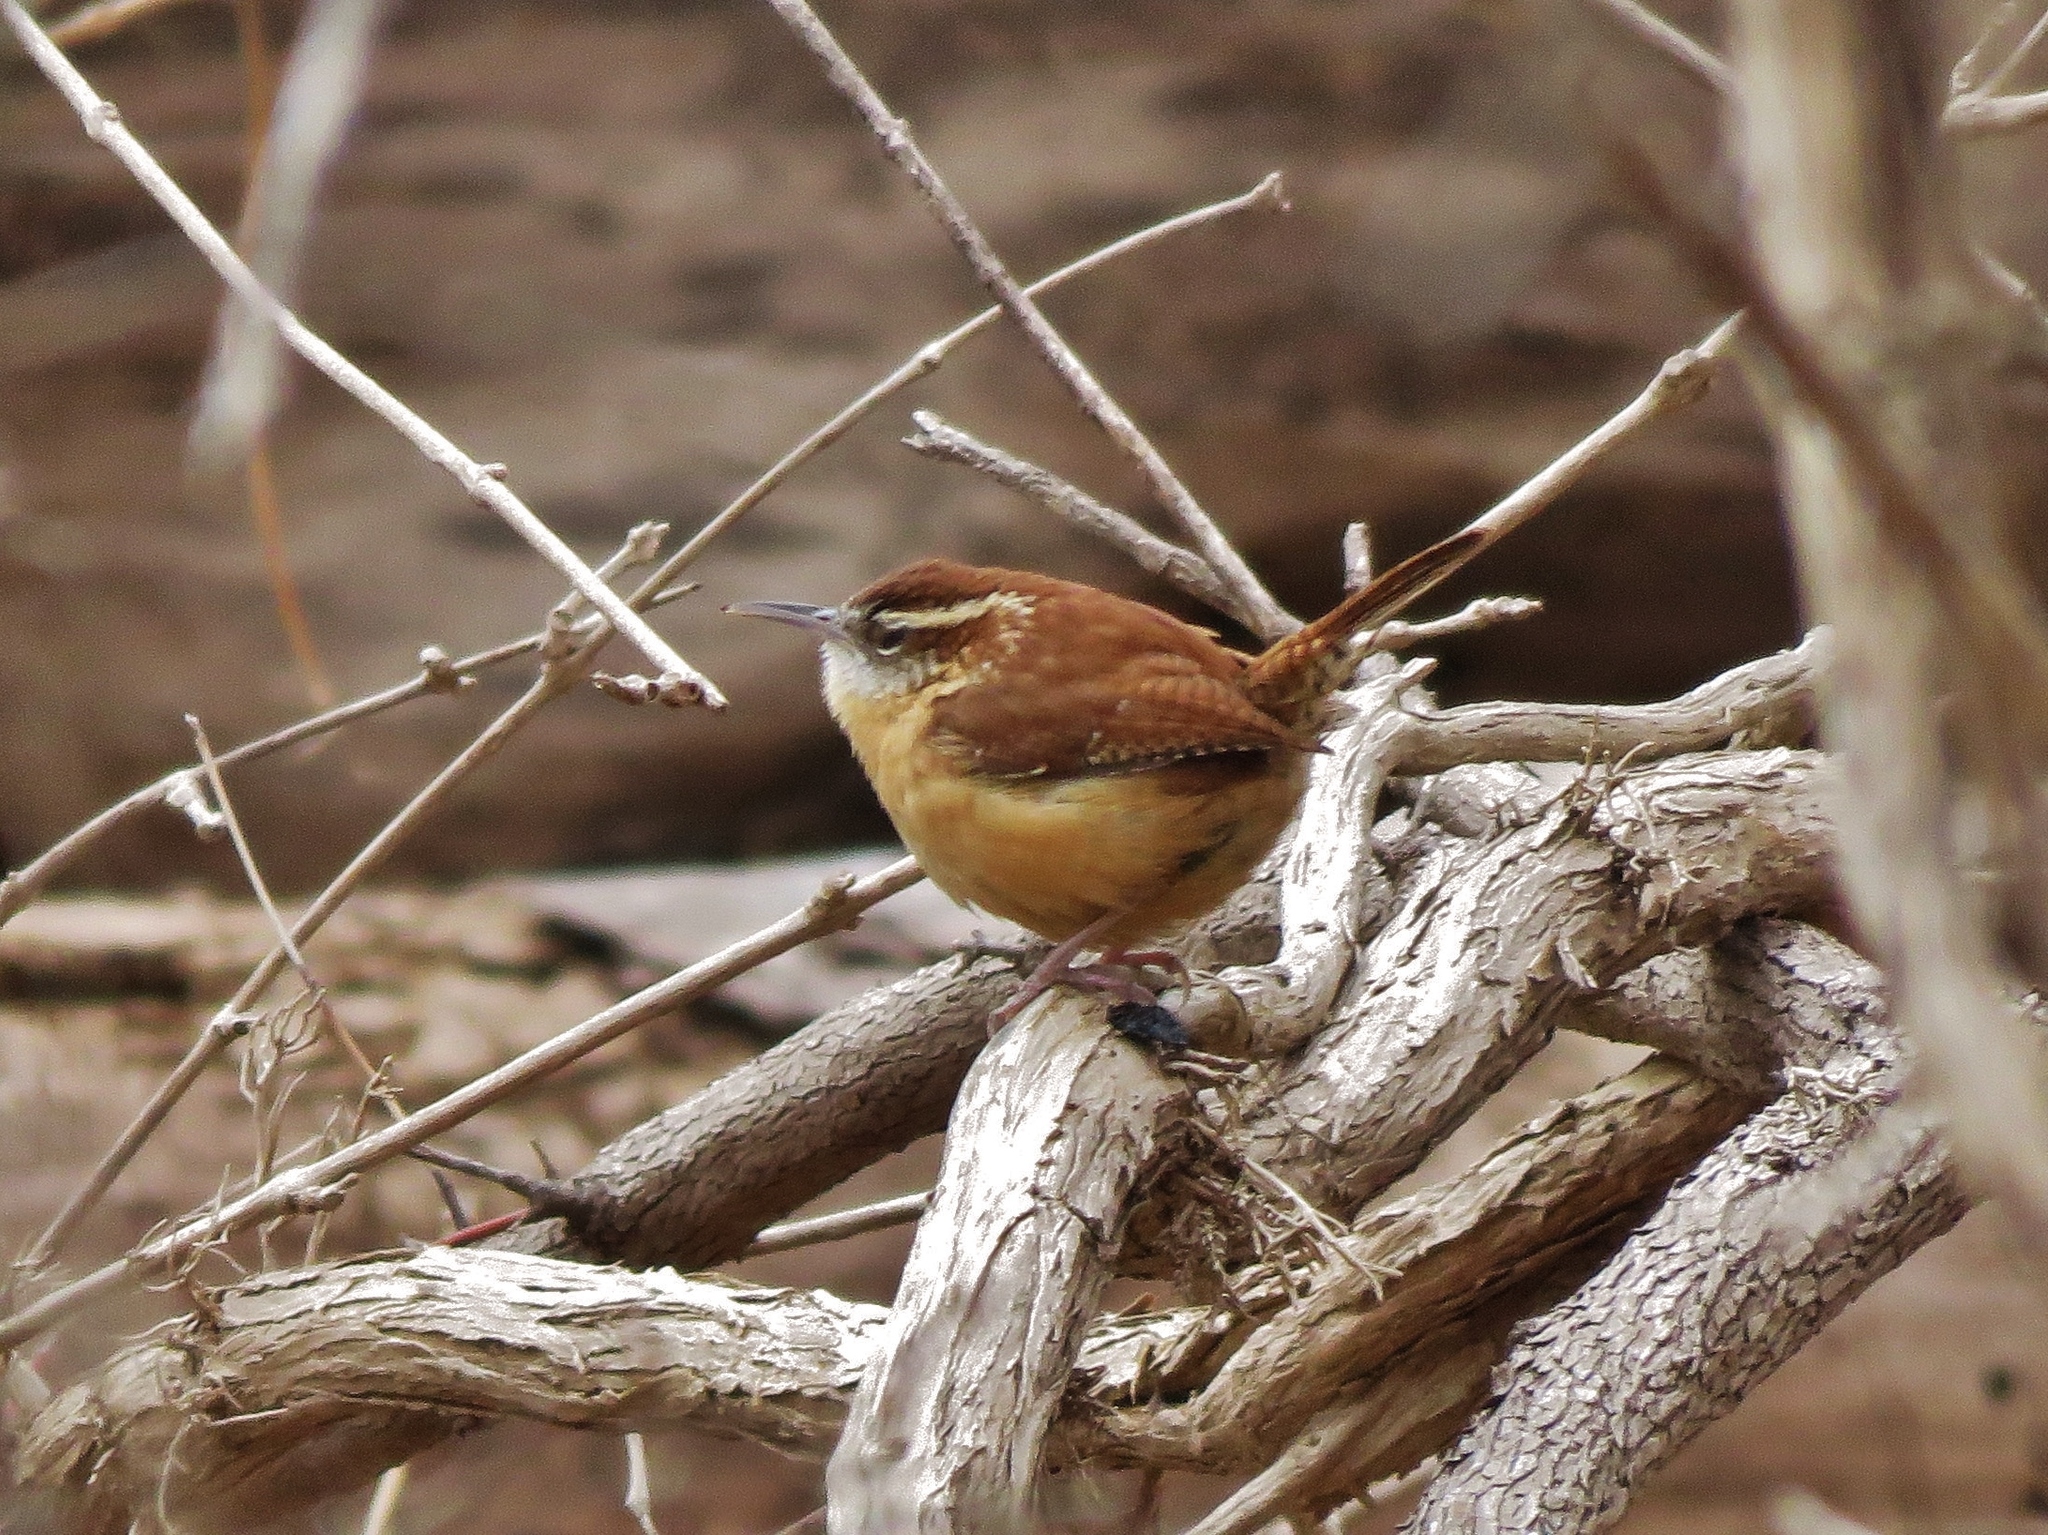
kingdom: Animalia
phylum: Chordata
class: Aves
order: Passeriformes
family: Troglodytidae
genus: Thryothorus
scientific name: Thryothorus ludovicianus
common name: Carolina wren
